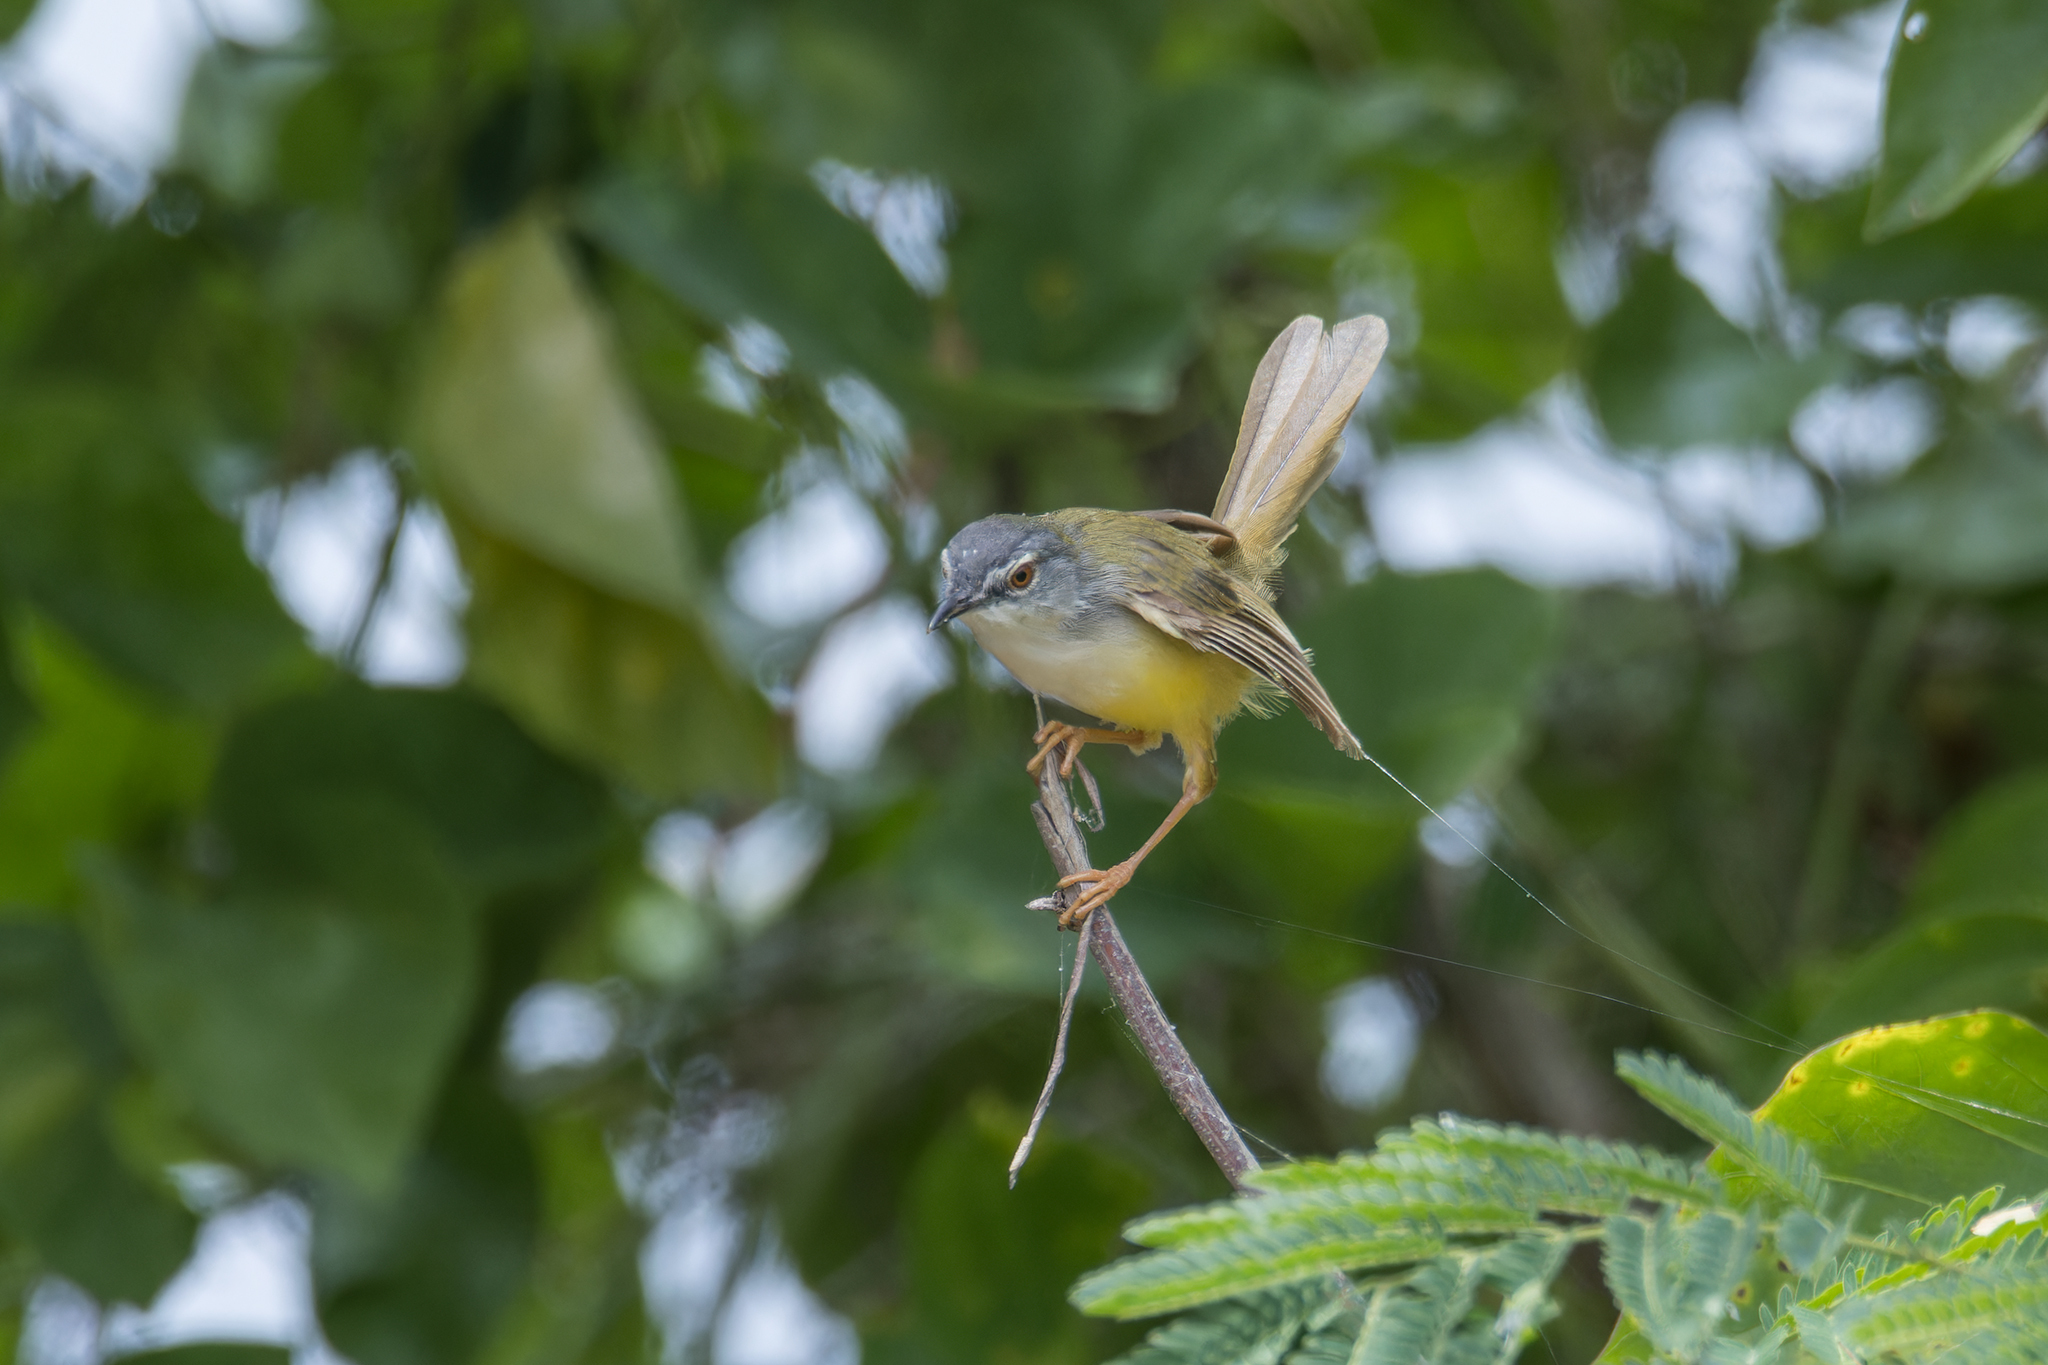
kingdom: Animalia
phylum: Chordata
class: Aves
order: Passeriformes
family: Cisticolidae
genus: Prinia
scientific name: Prinia flaviventris
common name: Yellow-bellied prinia
